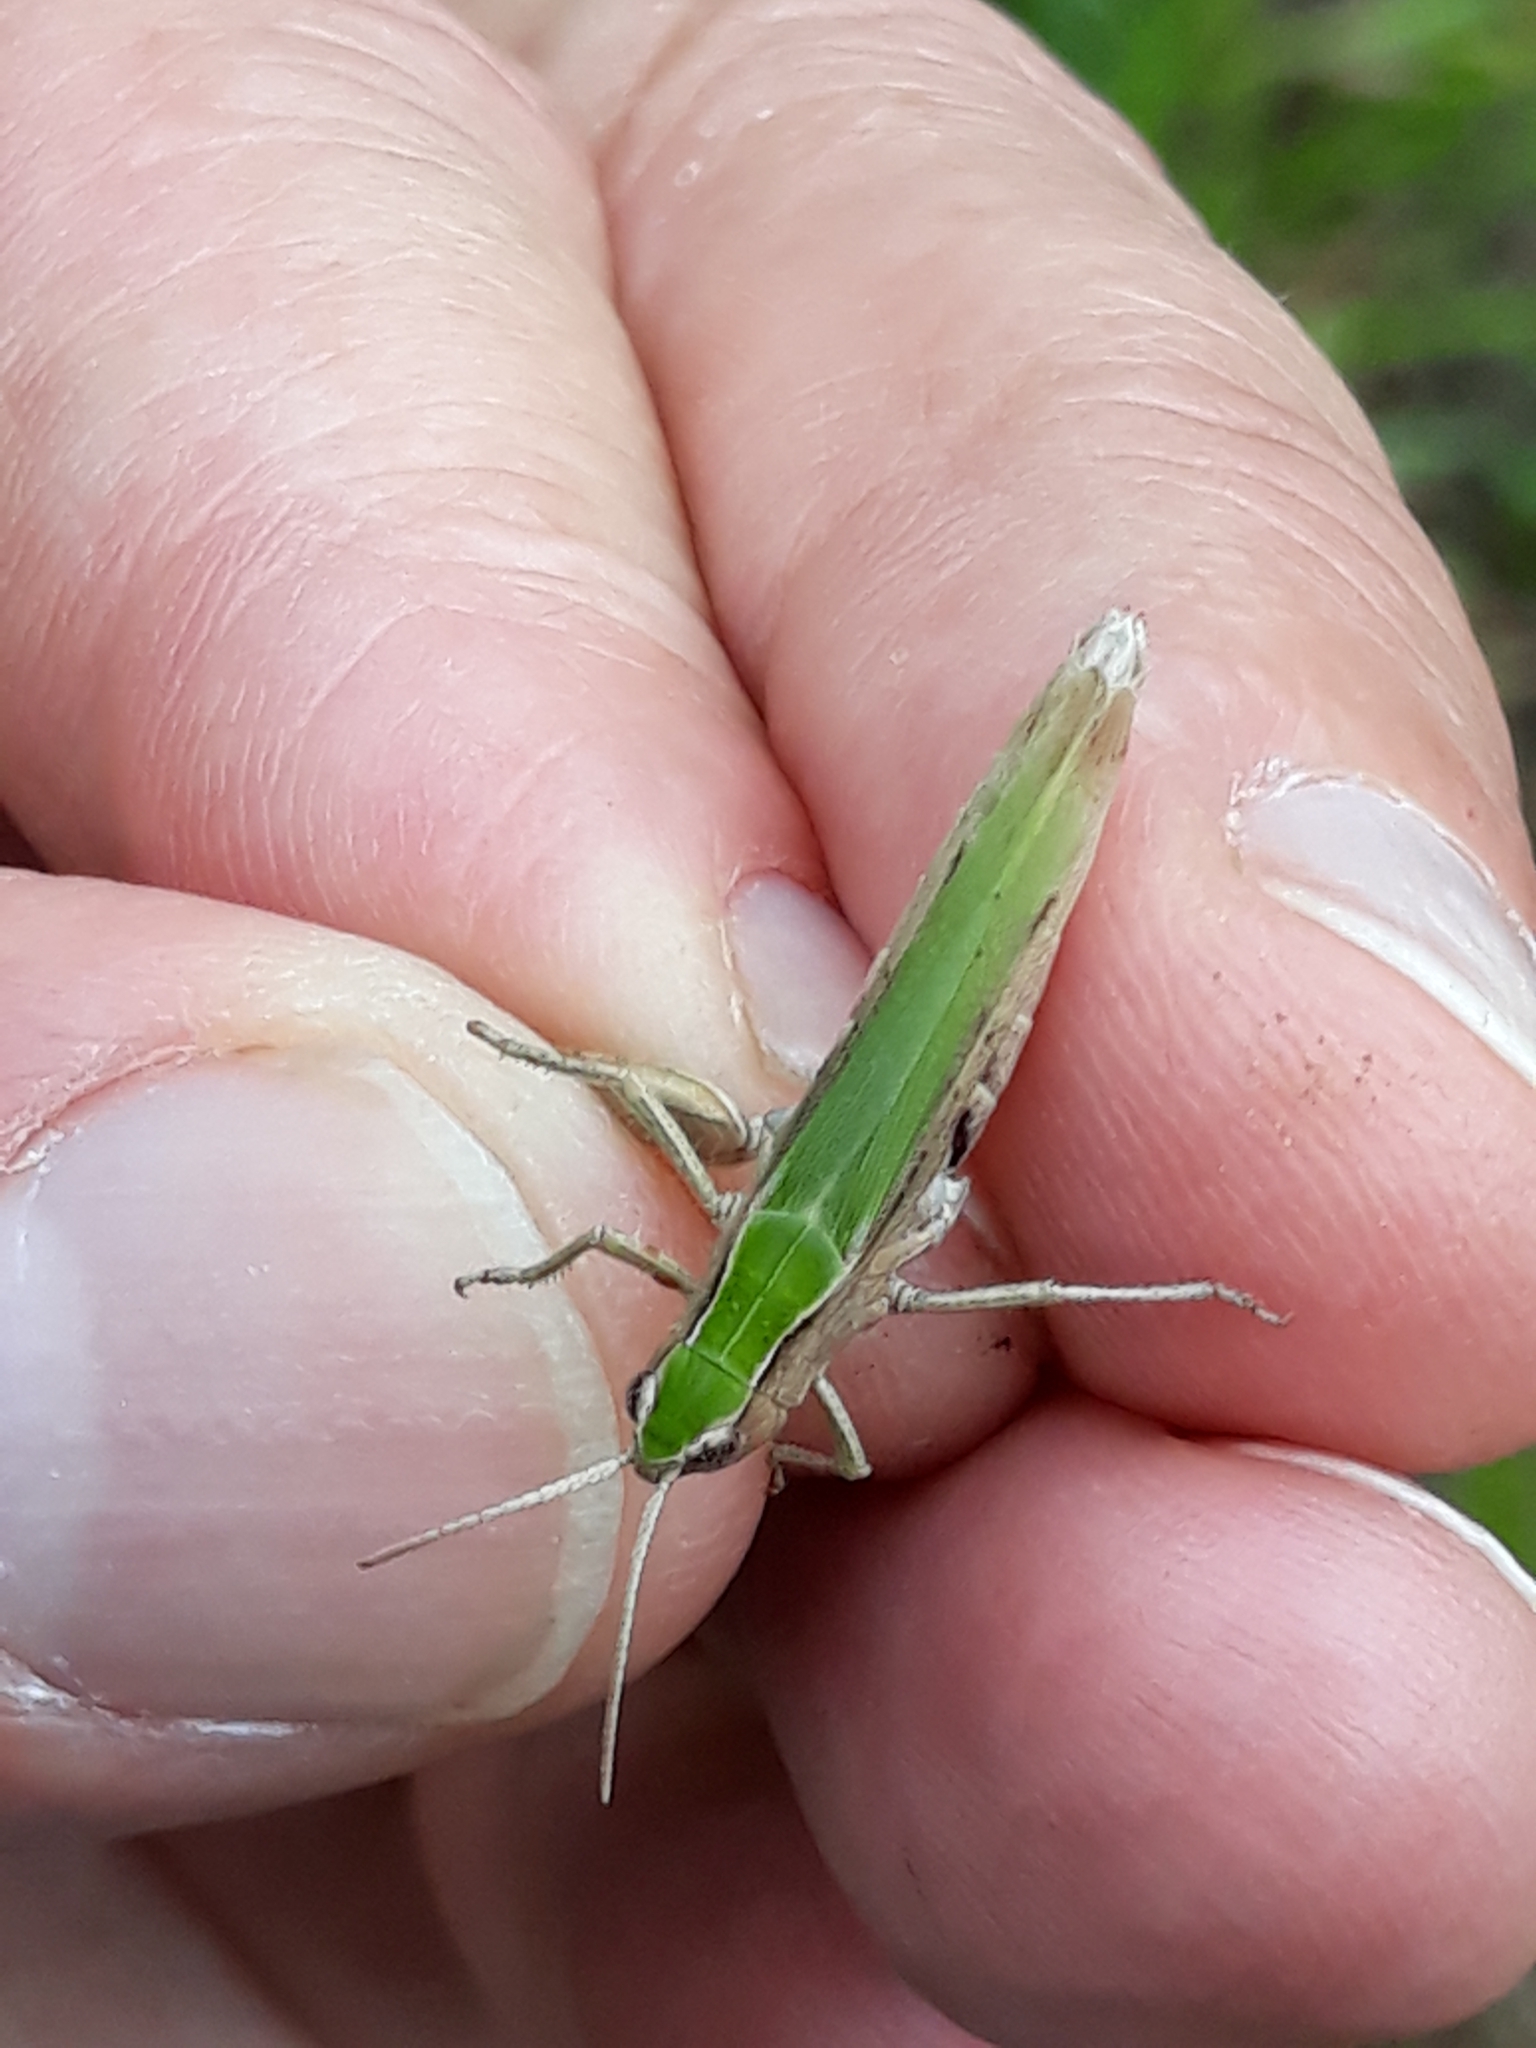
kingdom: Animalia
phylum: Arthropoda
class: Insecta
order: Orthoptera
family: Acrididae
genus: Chorthippus
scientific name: Chorthippus dorsatus
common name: Steppe grasshopper
